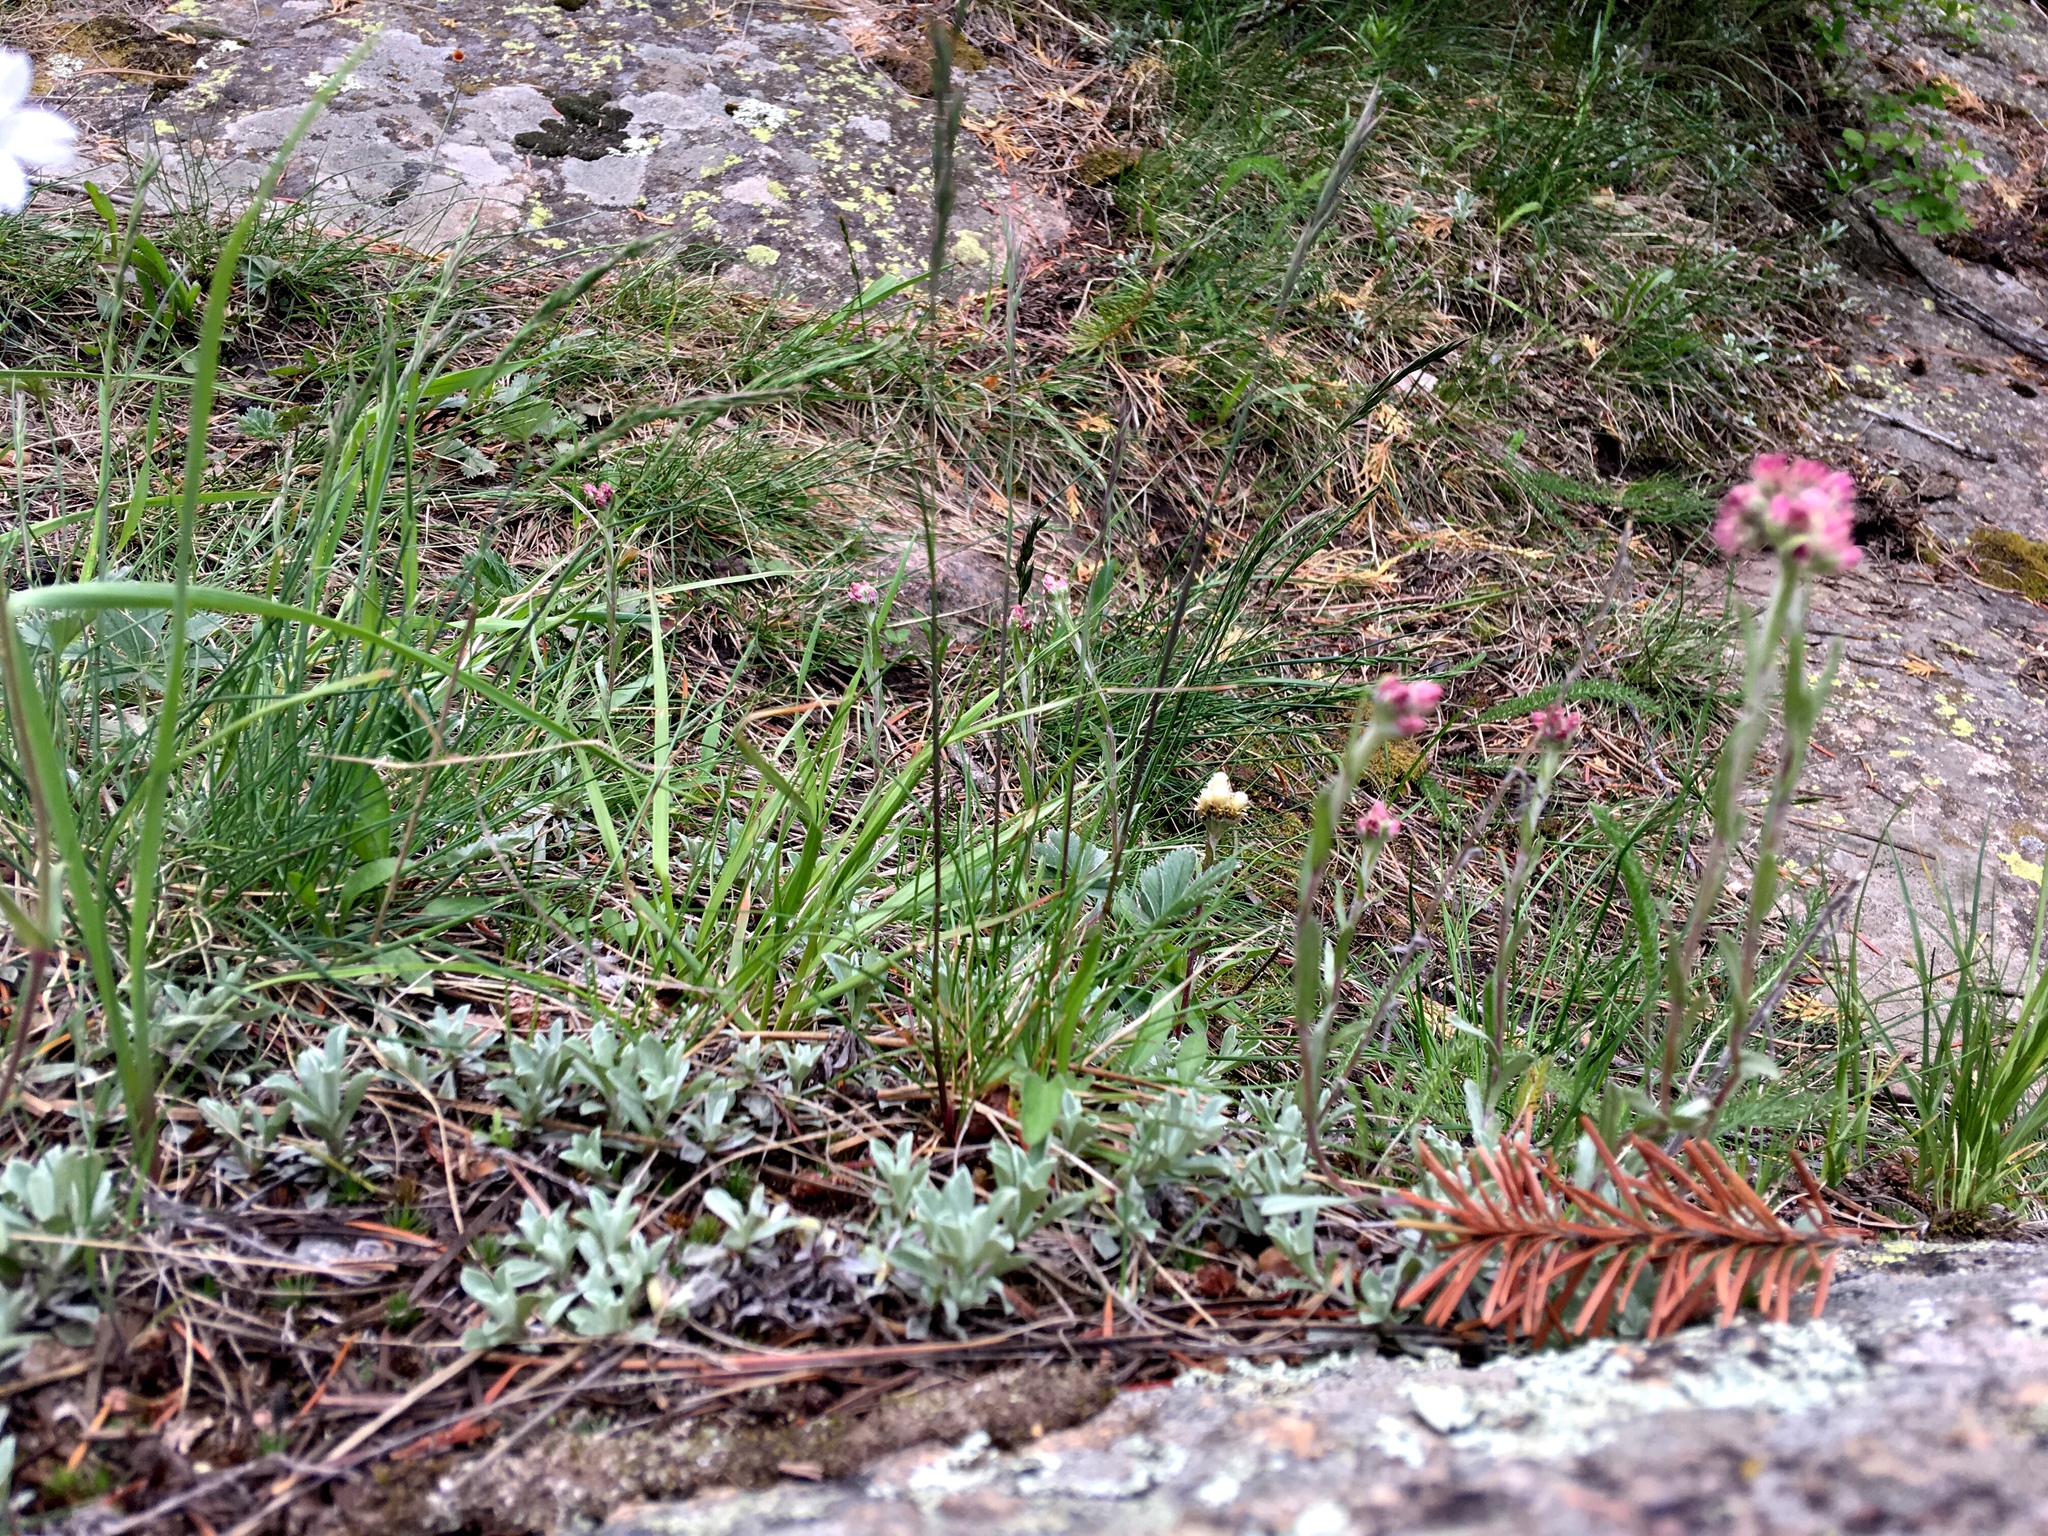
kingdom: Plantae
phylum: Tracheophyta
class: Magnoliopsida
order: Asterales
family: Asteraceae
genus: Antennaria
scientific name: Antennaria rosea
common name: Rosy pussytoes
